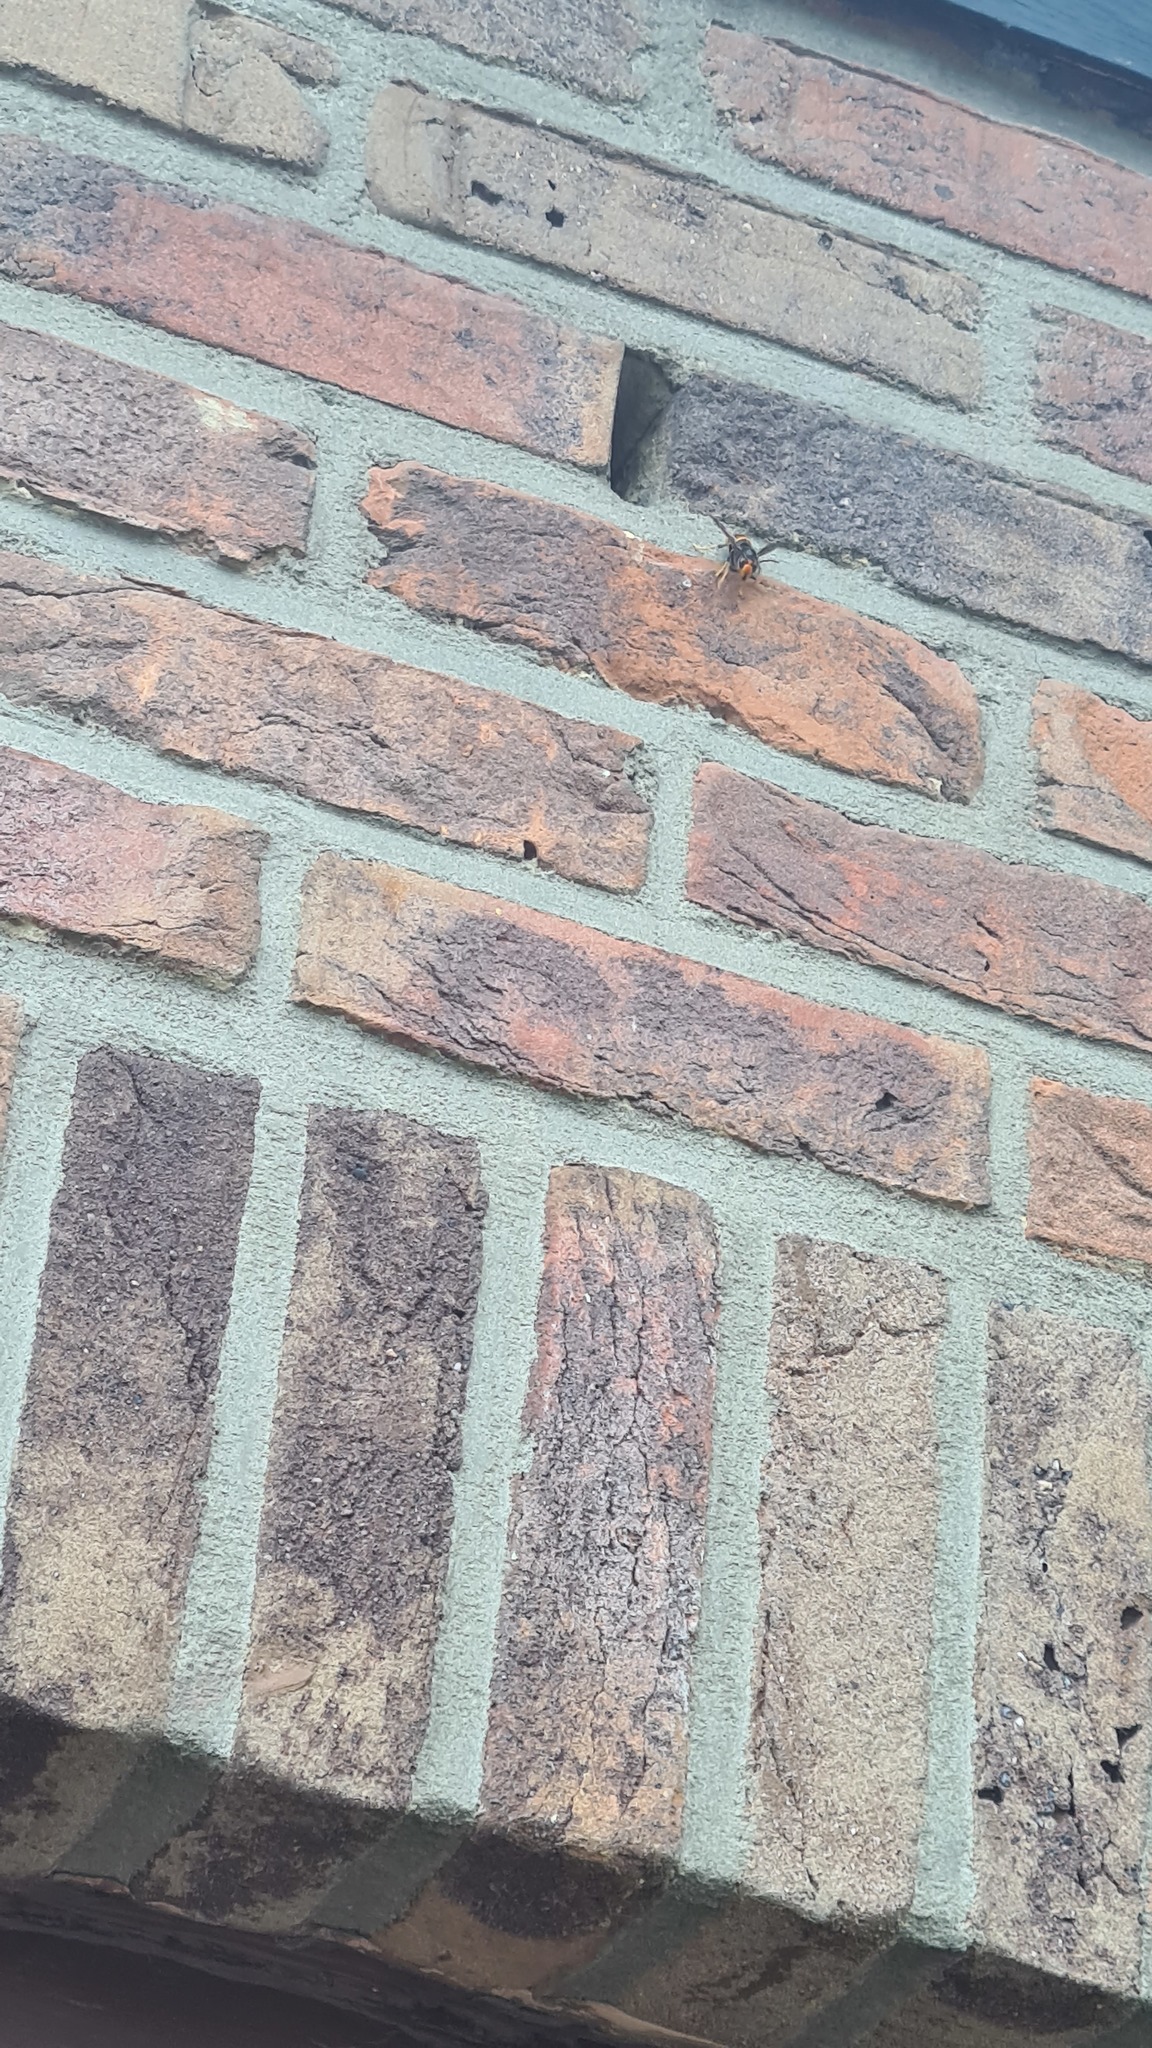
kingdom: Animalia
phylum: Arthropoda
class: Insecta
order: Hymenoptera
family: Vespidae
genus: Vespa
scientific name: Vespa velutina
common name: Asian hornet
